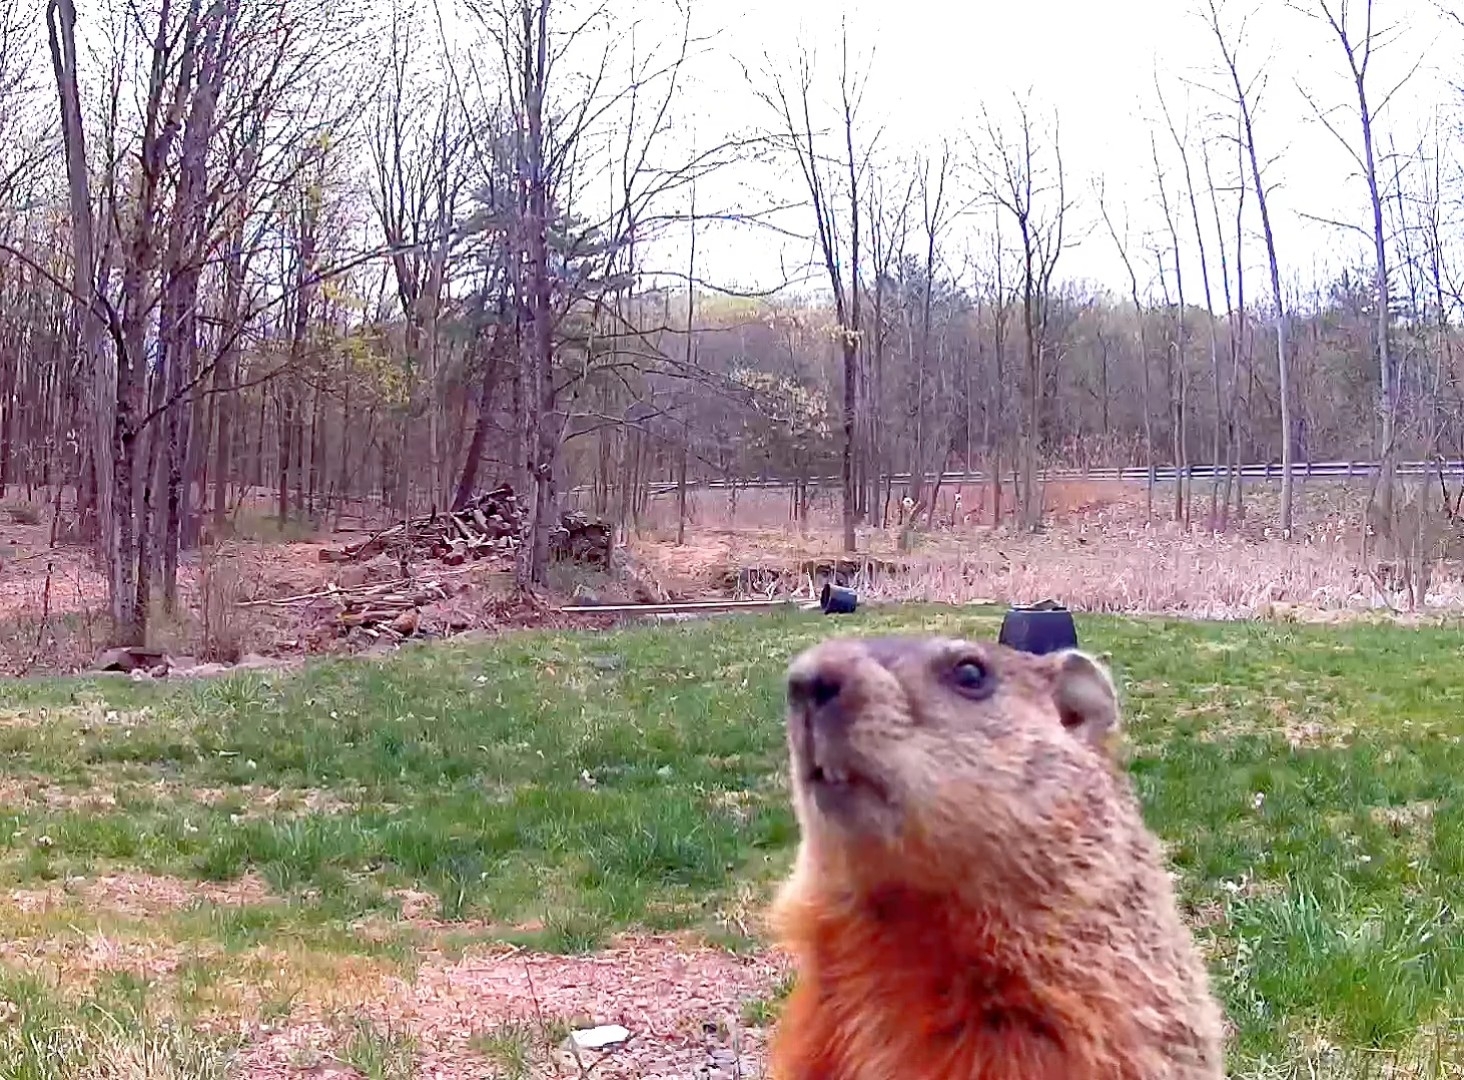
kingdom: Animalia
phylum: Chordata
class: Mammalia
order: Rodentia
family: Sciuridae
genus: Marmota
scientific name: Marmota monax
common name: Groundhog
